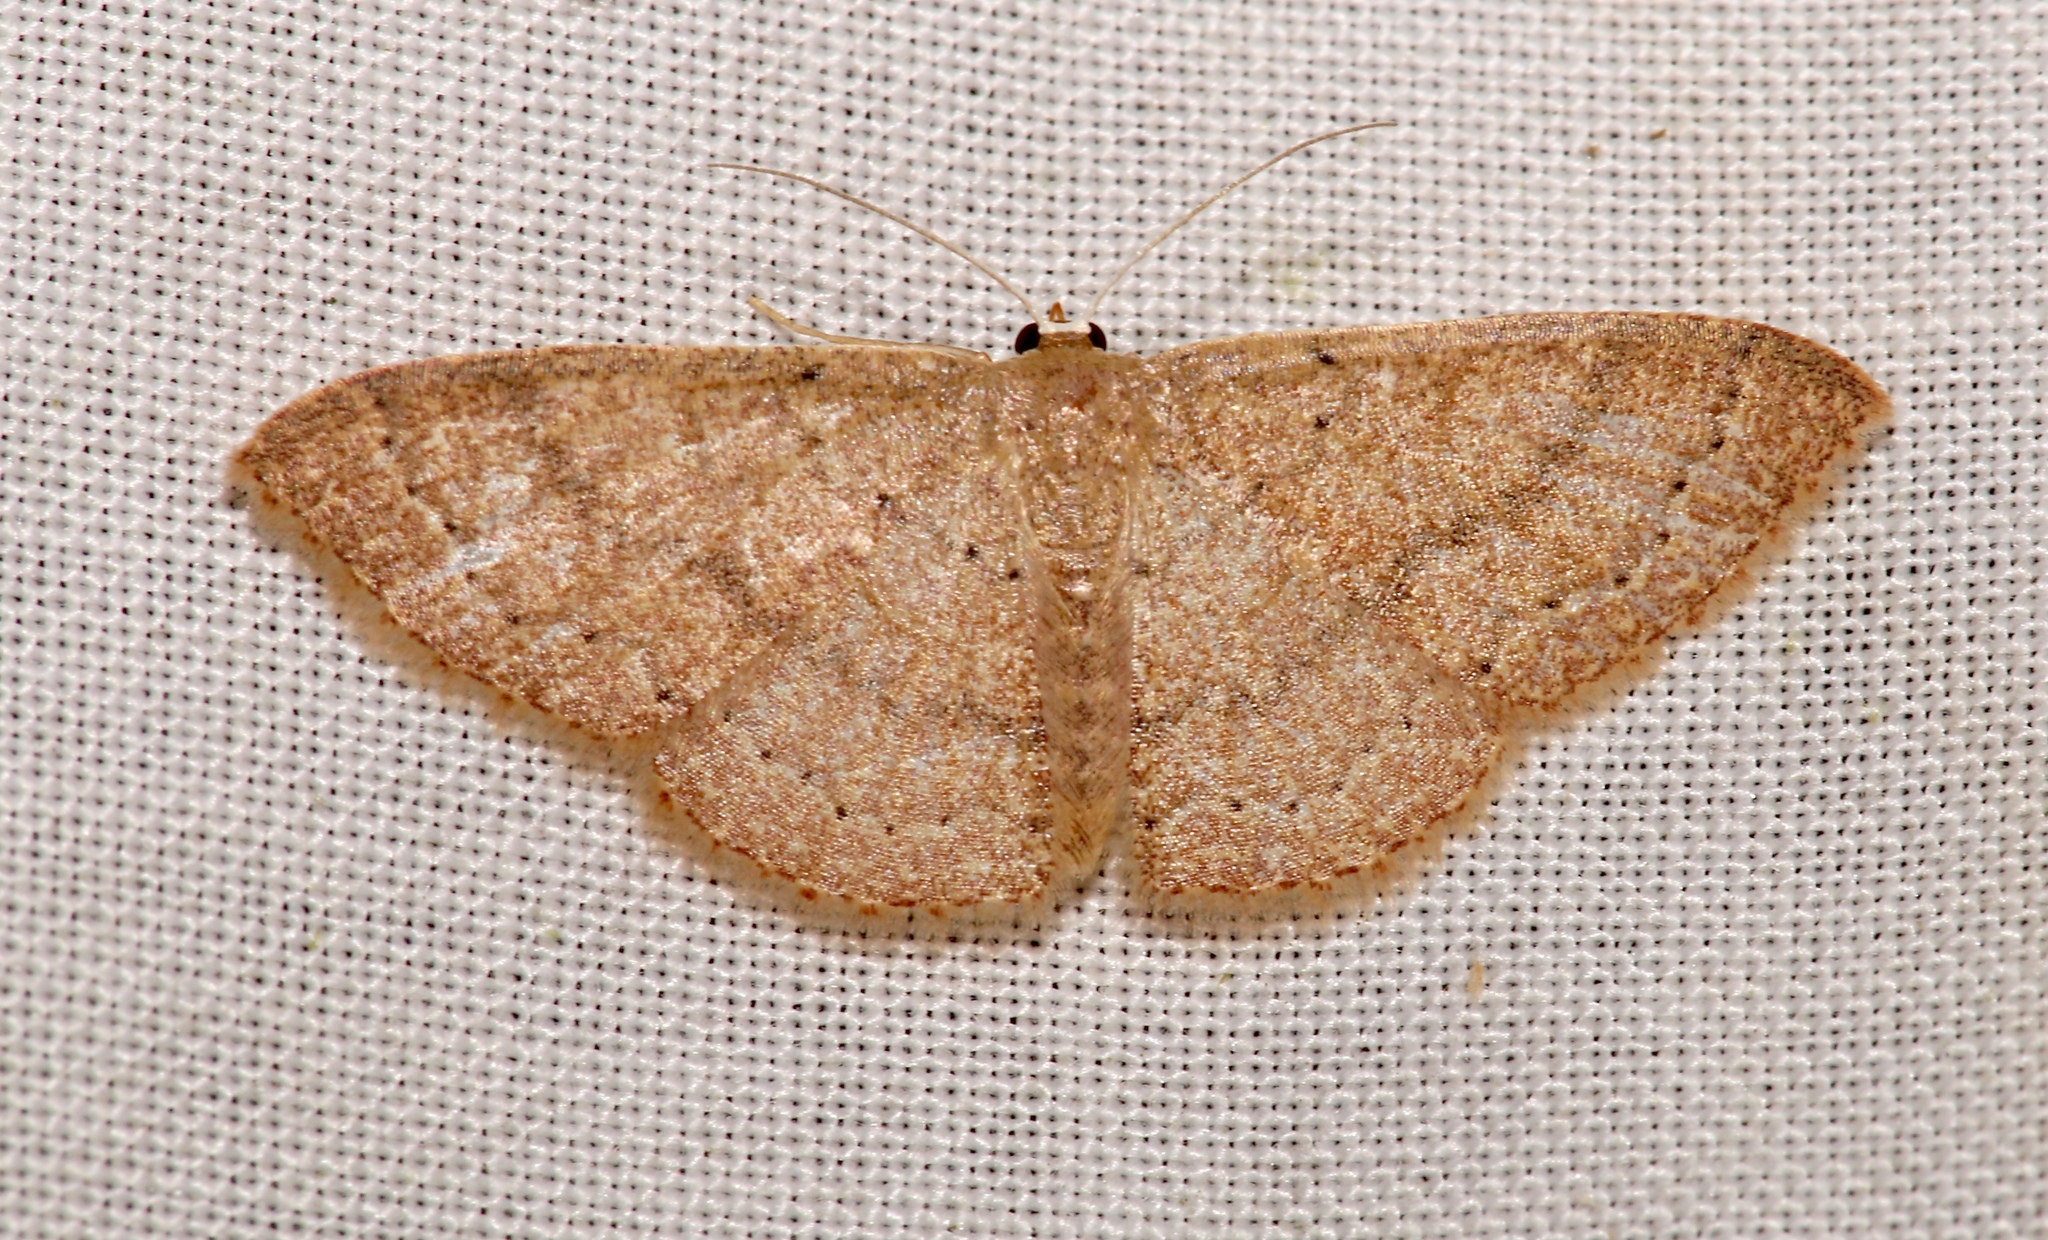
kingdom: Animalia
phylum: Arthropoda
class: Insecta
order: Lepidoptera
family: Geometridae
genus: Pleuroprucha
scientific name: Pleuroprucha insulsaria
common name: Common tan wave
